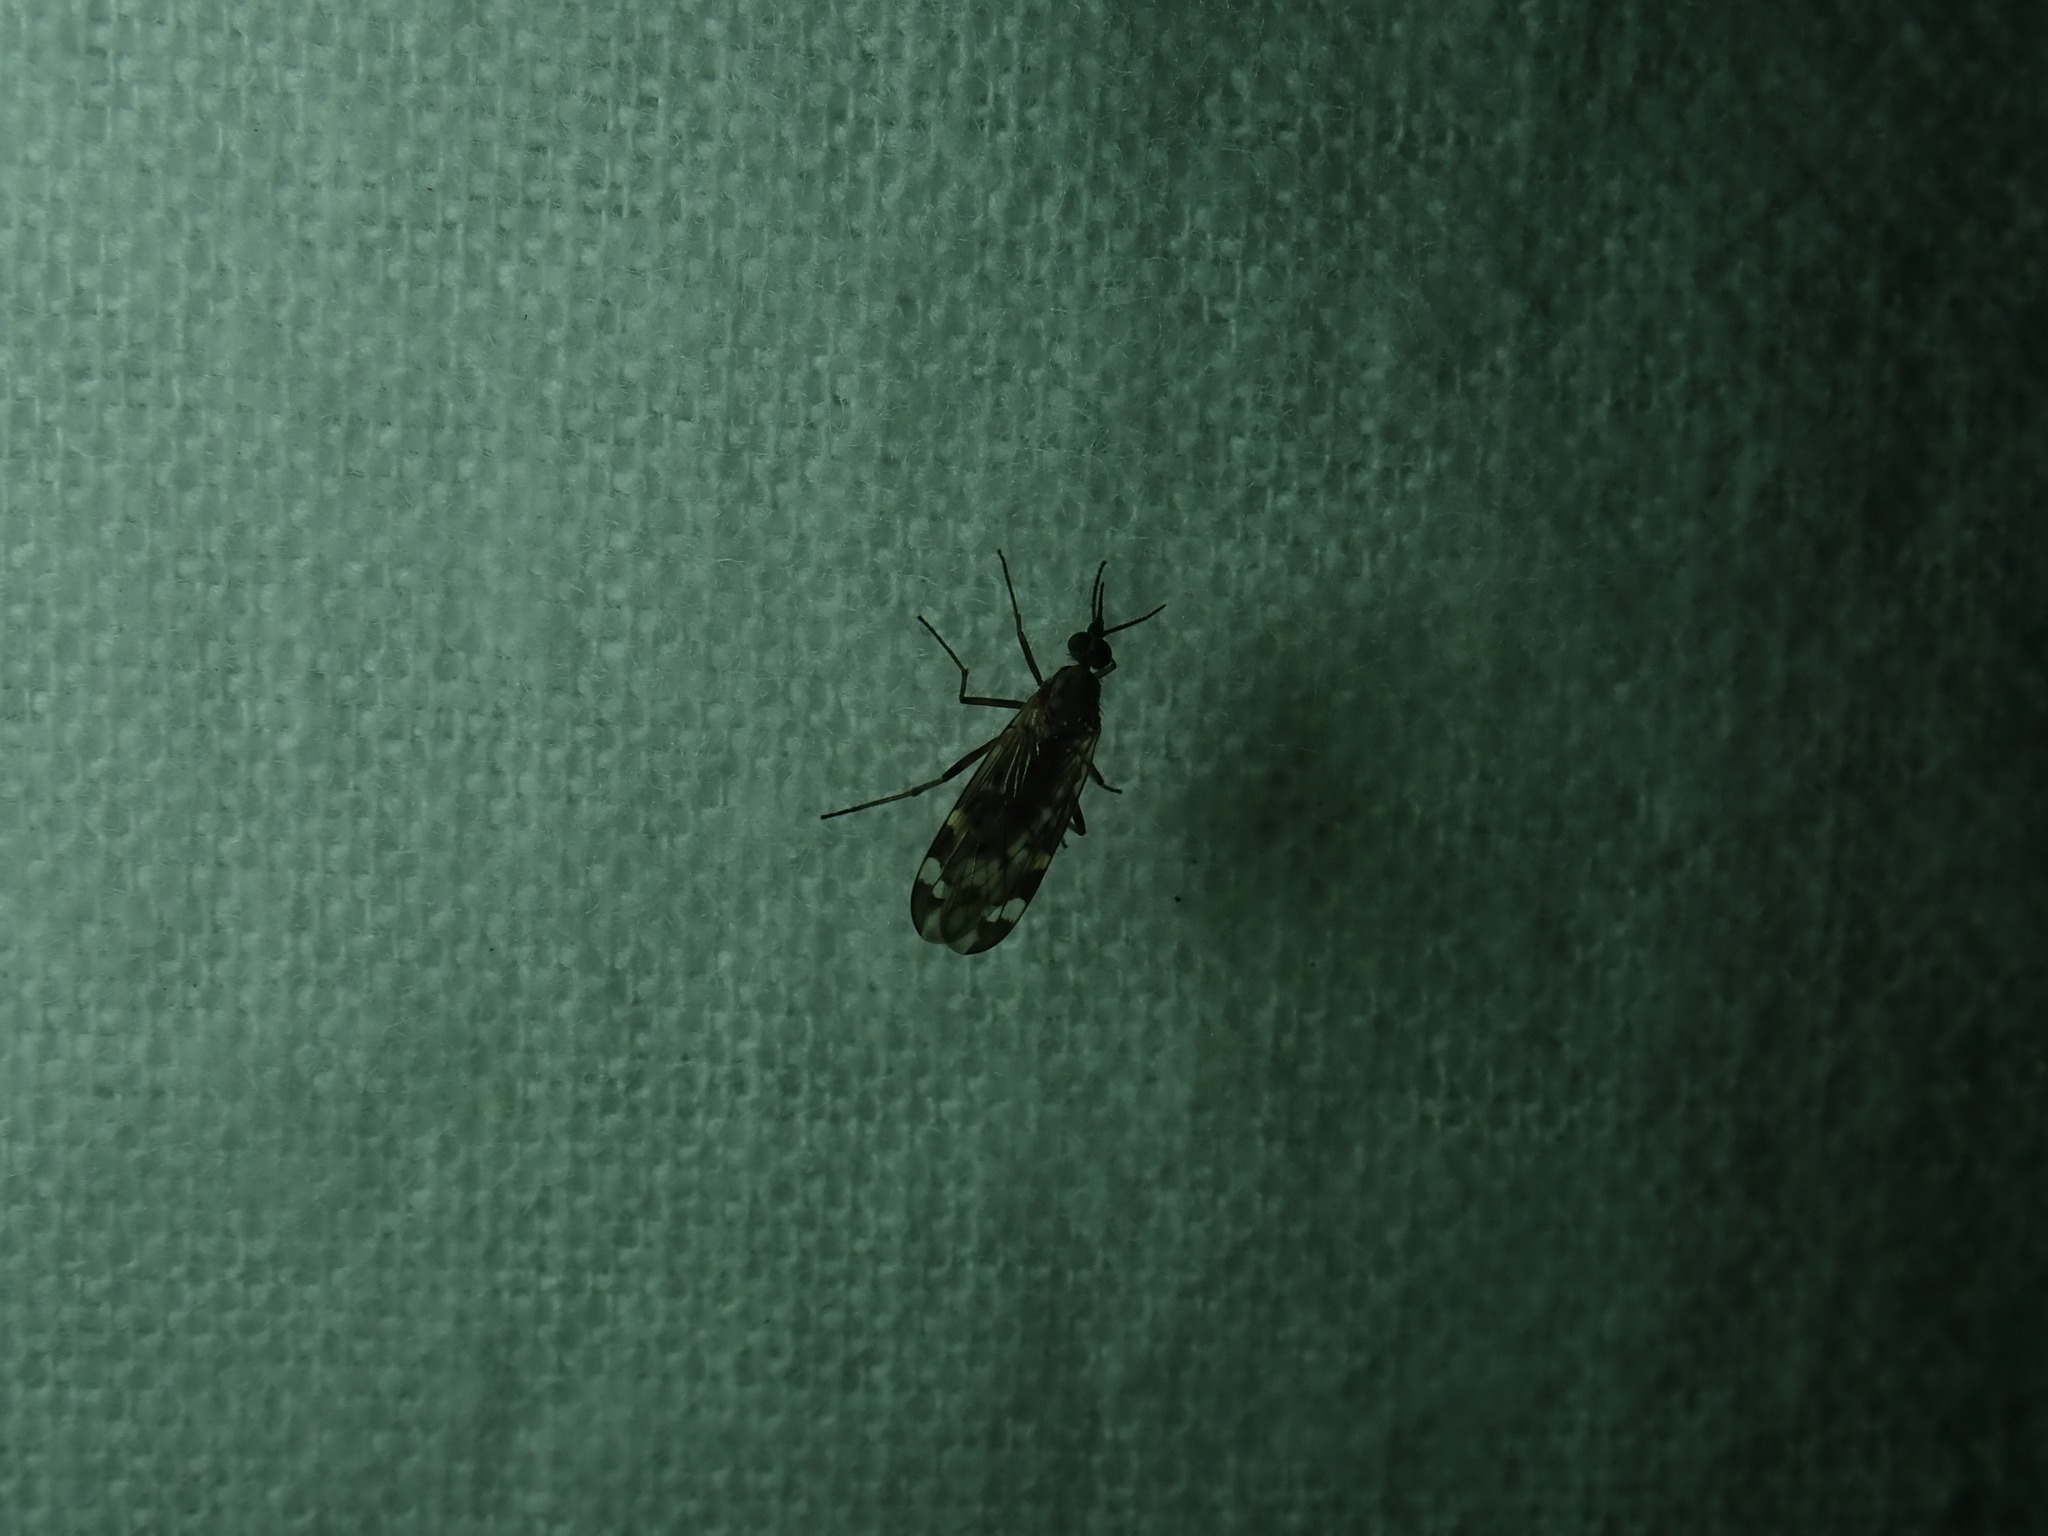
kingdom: Animalia
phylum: Arthropoda
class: Insecta
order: Diptera
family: Anisopodidae
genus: Sylvicola
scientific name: Sylvicola alternata
